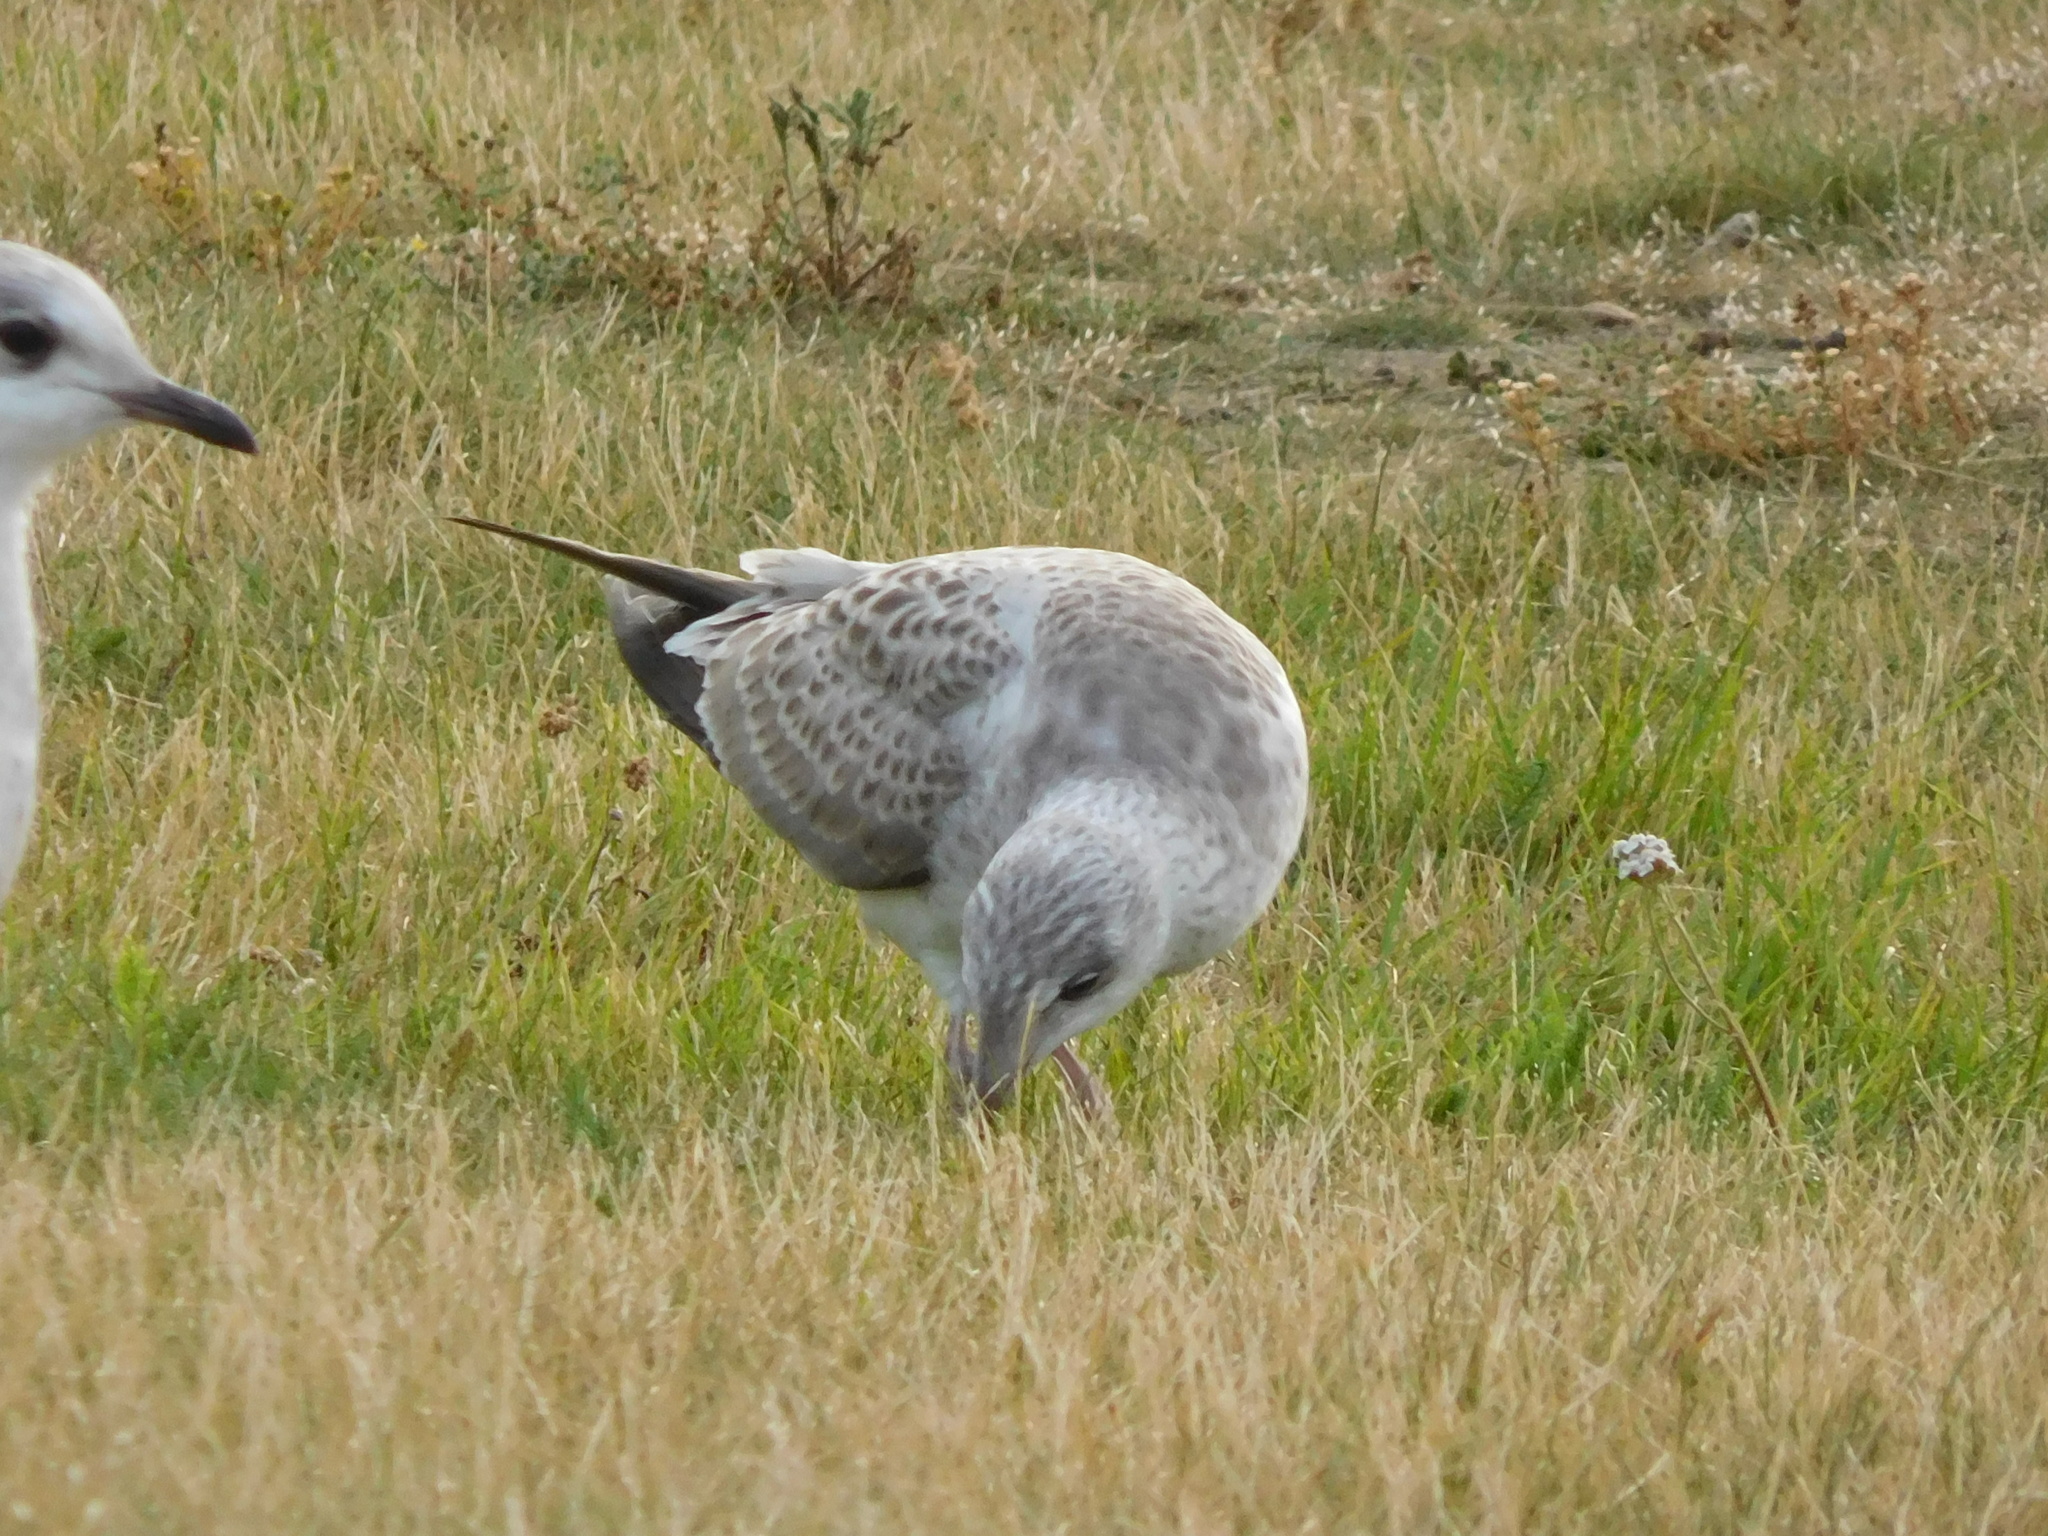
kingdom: Animalia
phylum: Chordata
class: Aves
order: Charadriiformes
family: Laridae
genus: Larus
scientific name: Larus canus
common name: Mew gull
